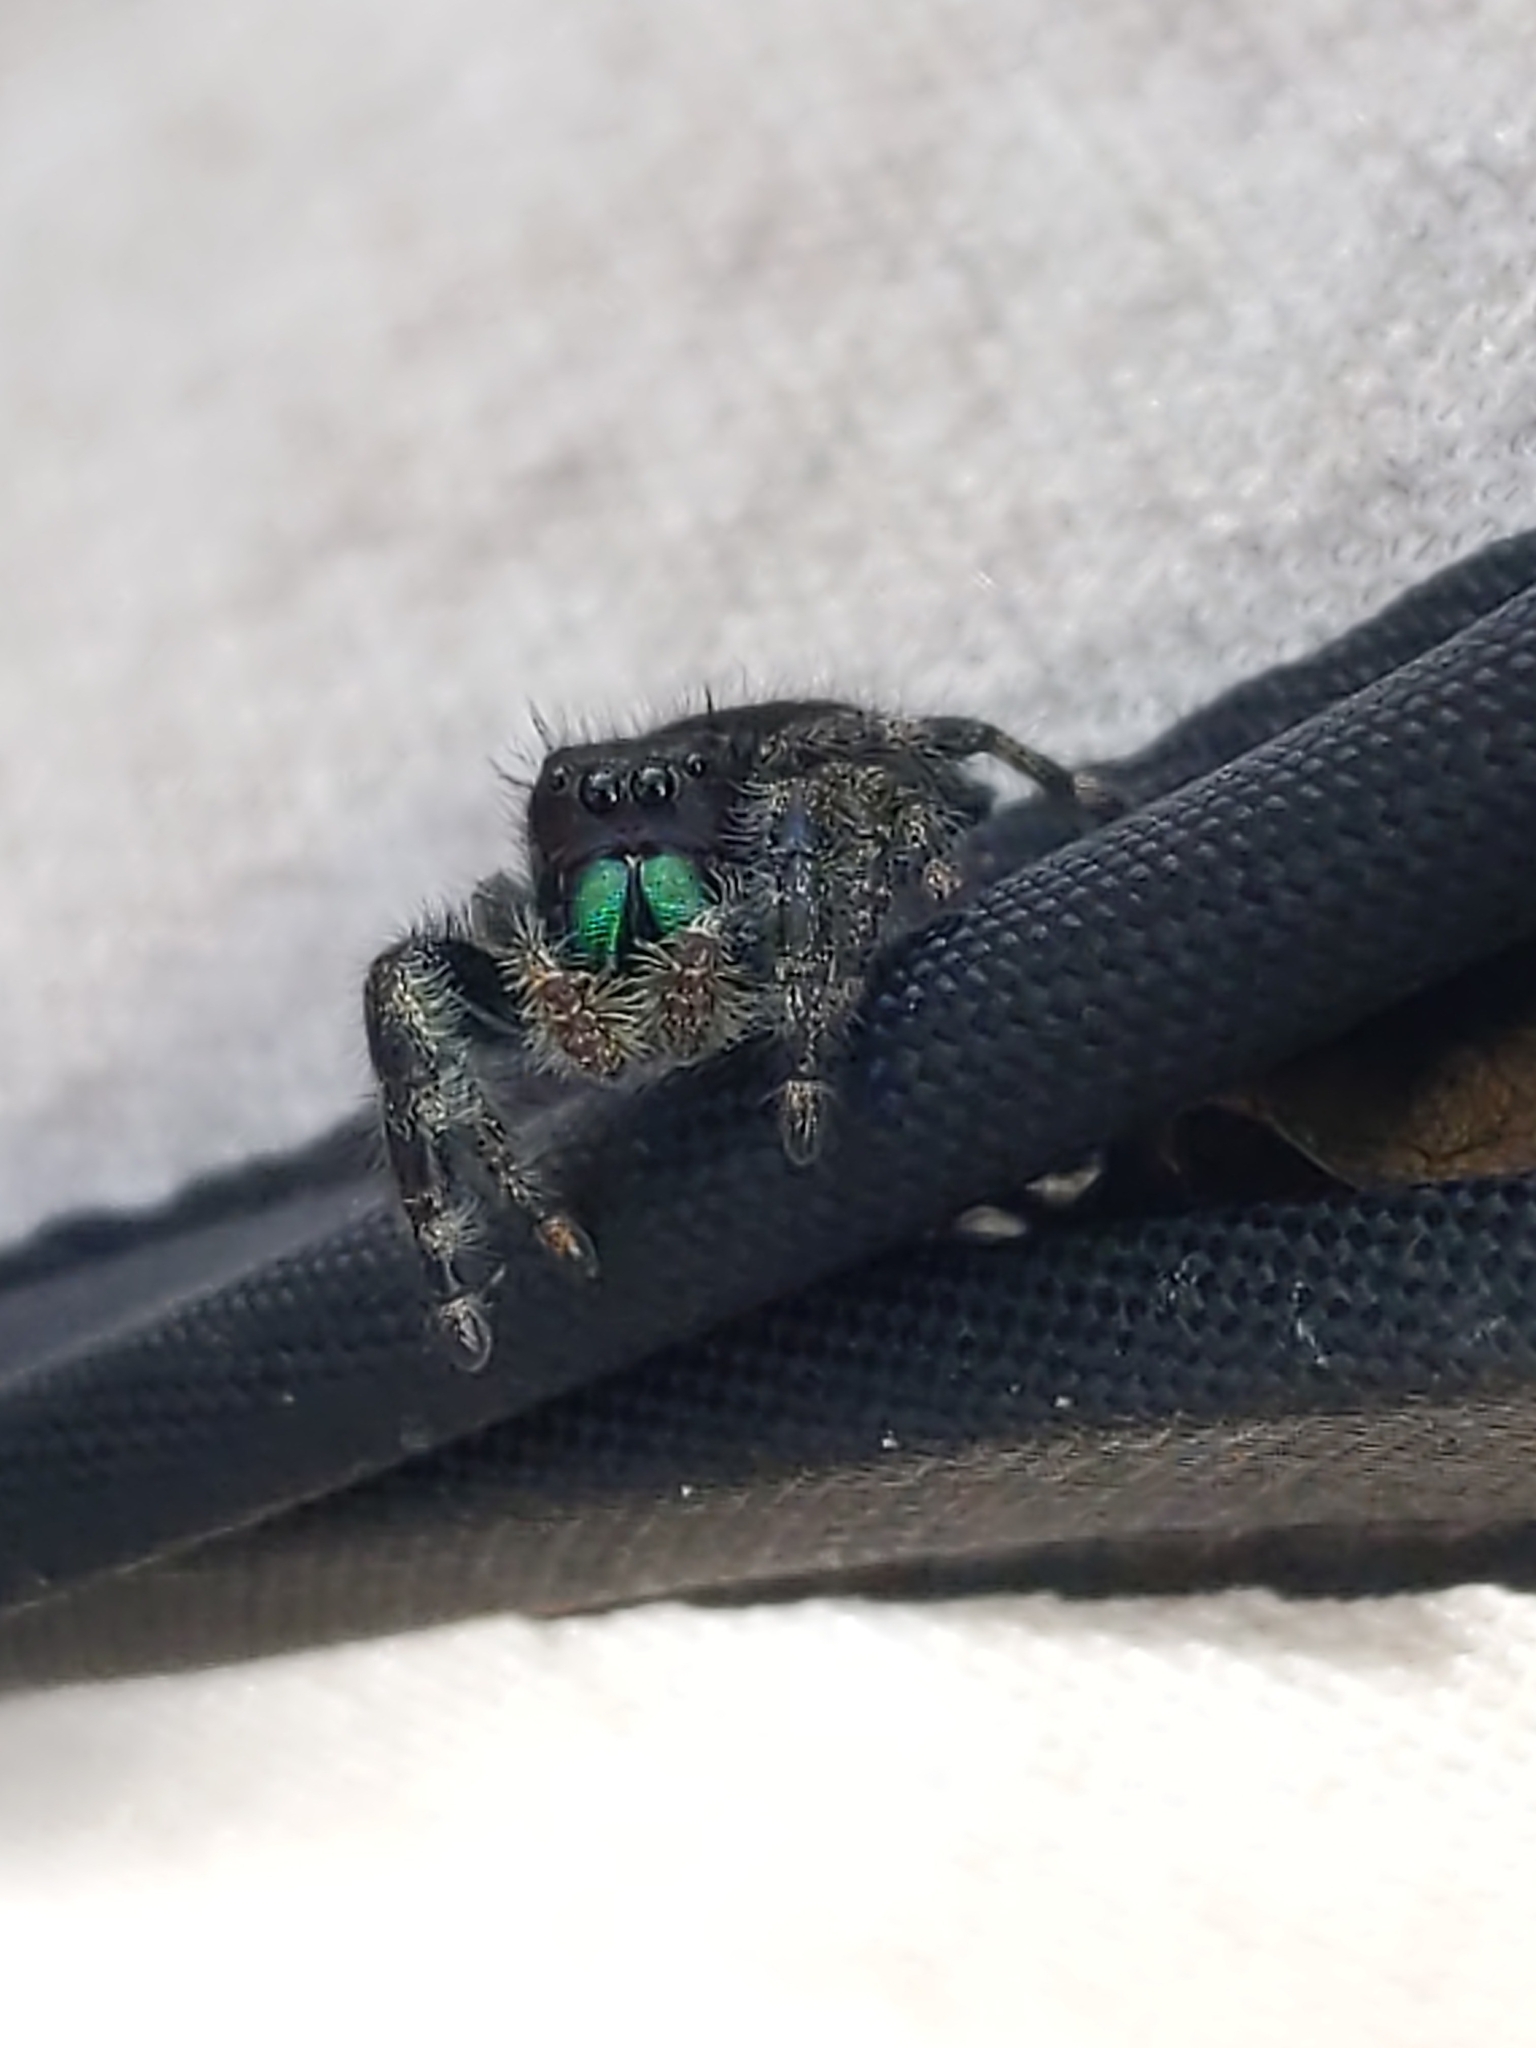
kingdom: Animalia
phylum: Arthropoda
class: Arachnida
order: Araneae
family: Salticidae
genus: Phidippus
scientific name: Phidippus audax
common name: Bold jumper
